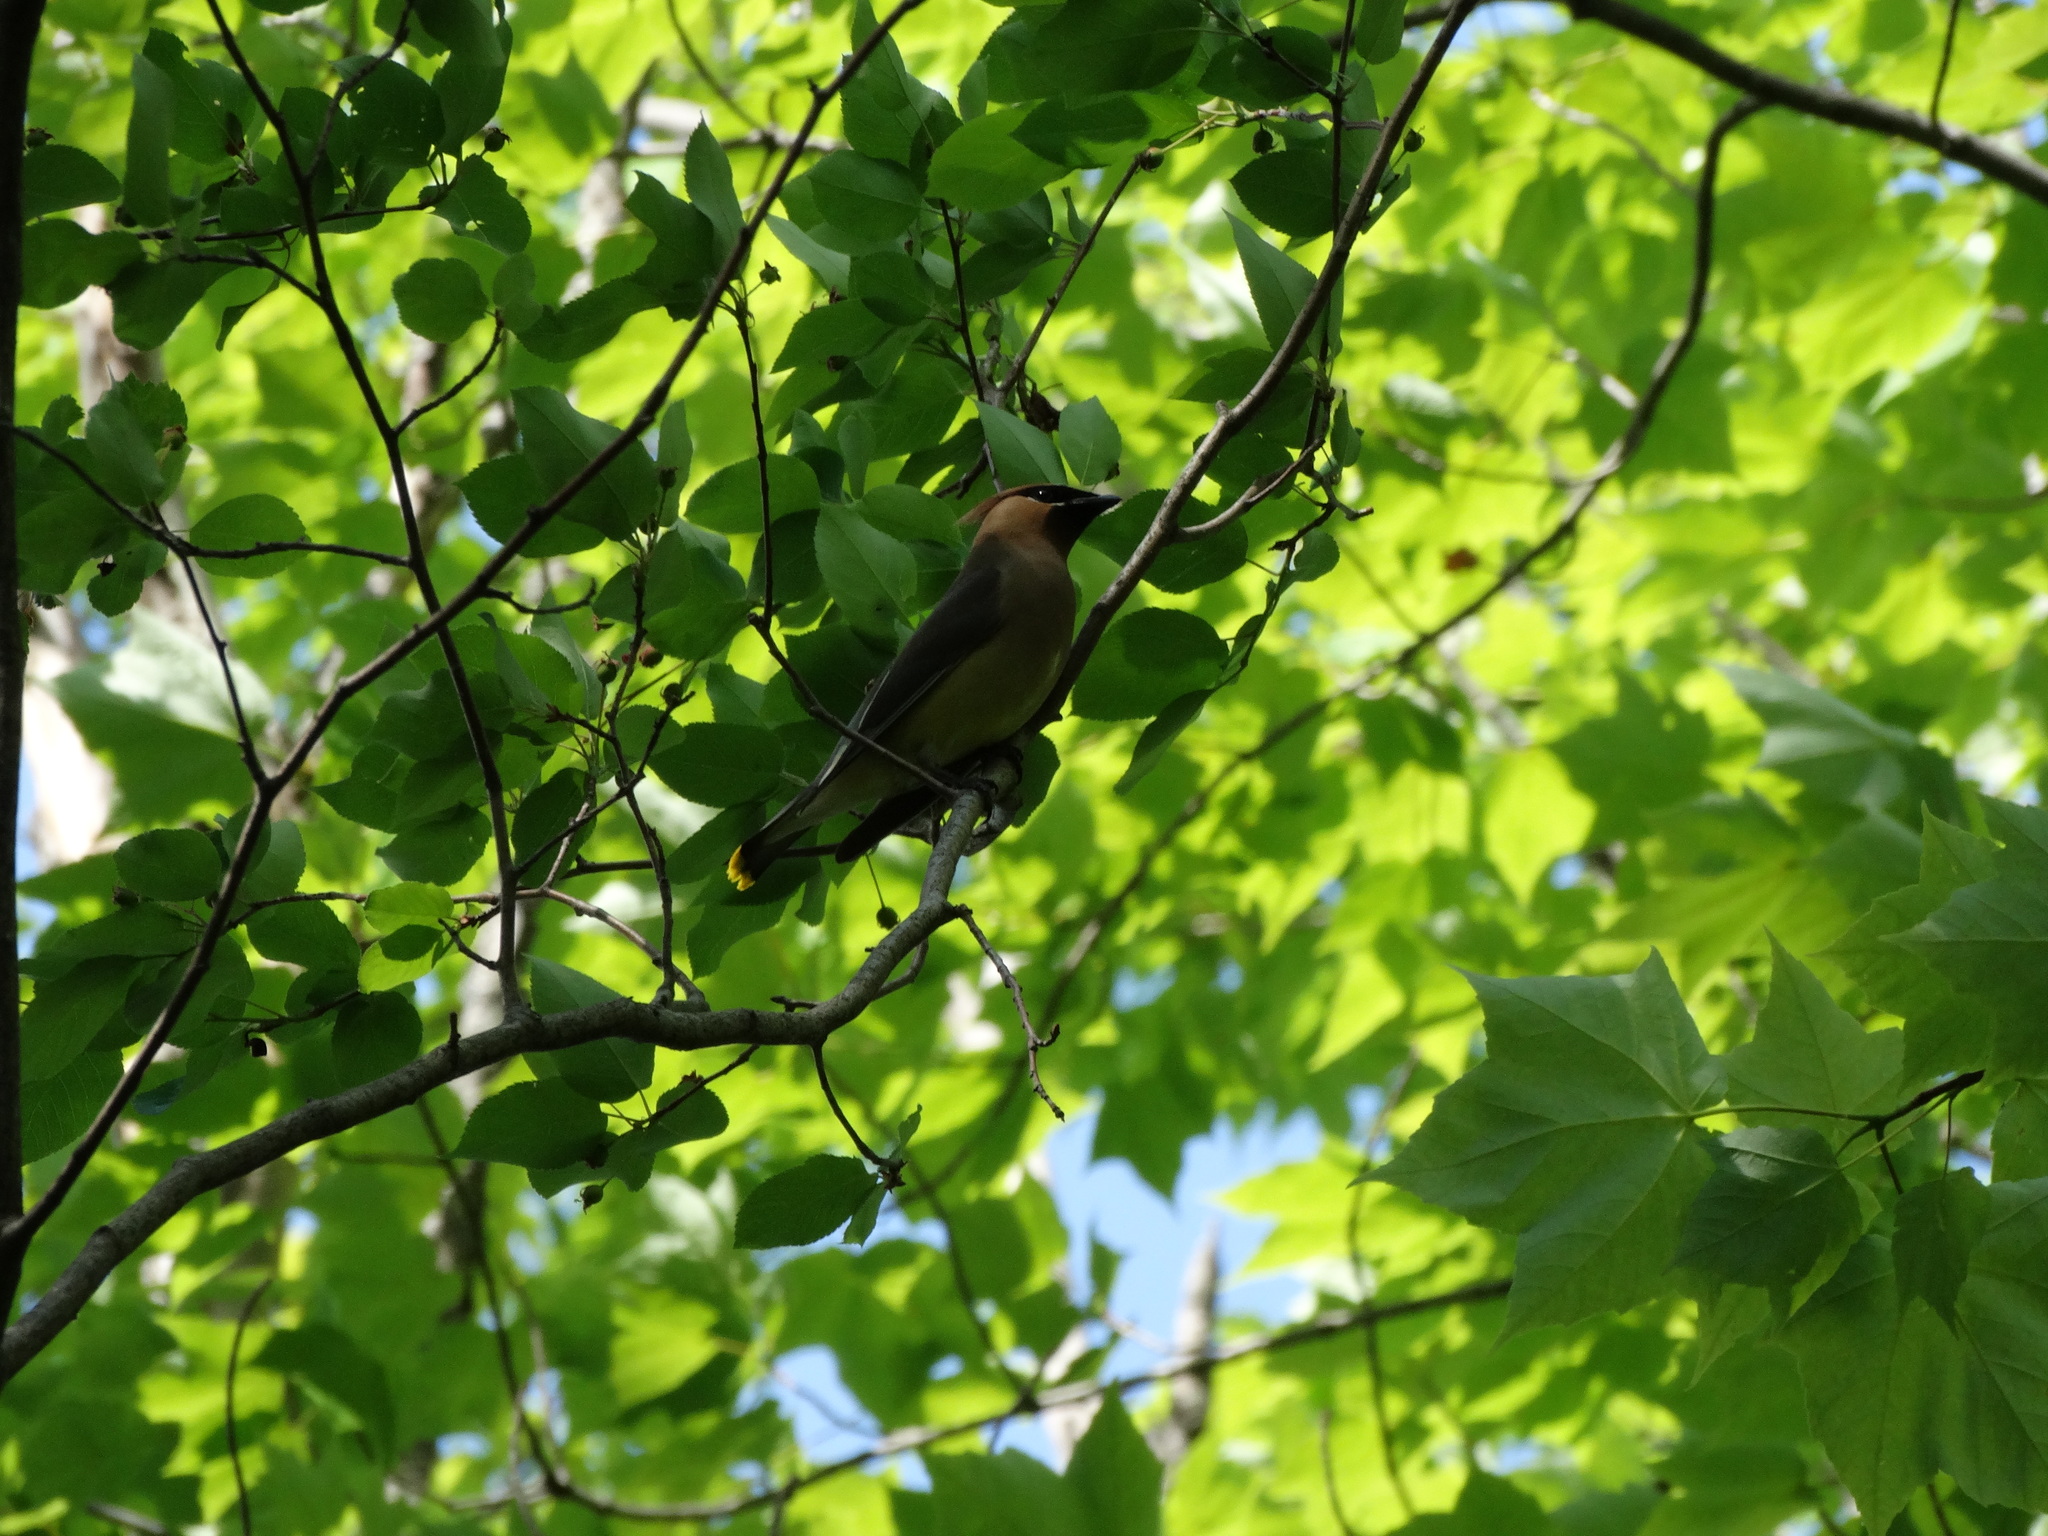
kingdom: Animalia
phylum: Chordata
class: Aves
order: Passeriformes
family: Bombycillidae
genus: Bombycilla
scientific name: Bombycilla cedrorum
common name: Cedar waxwing
